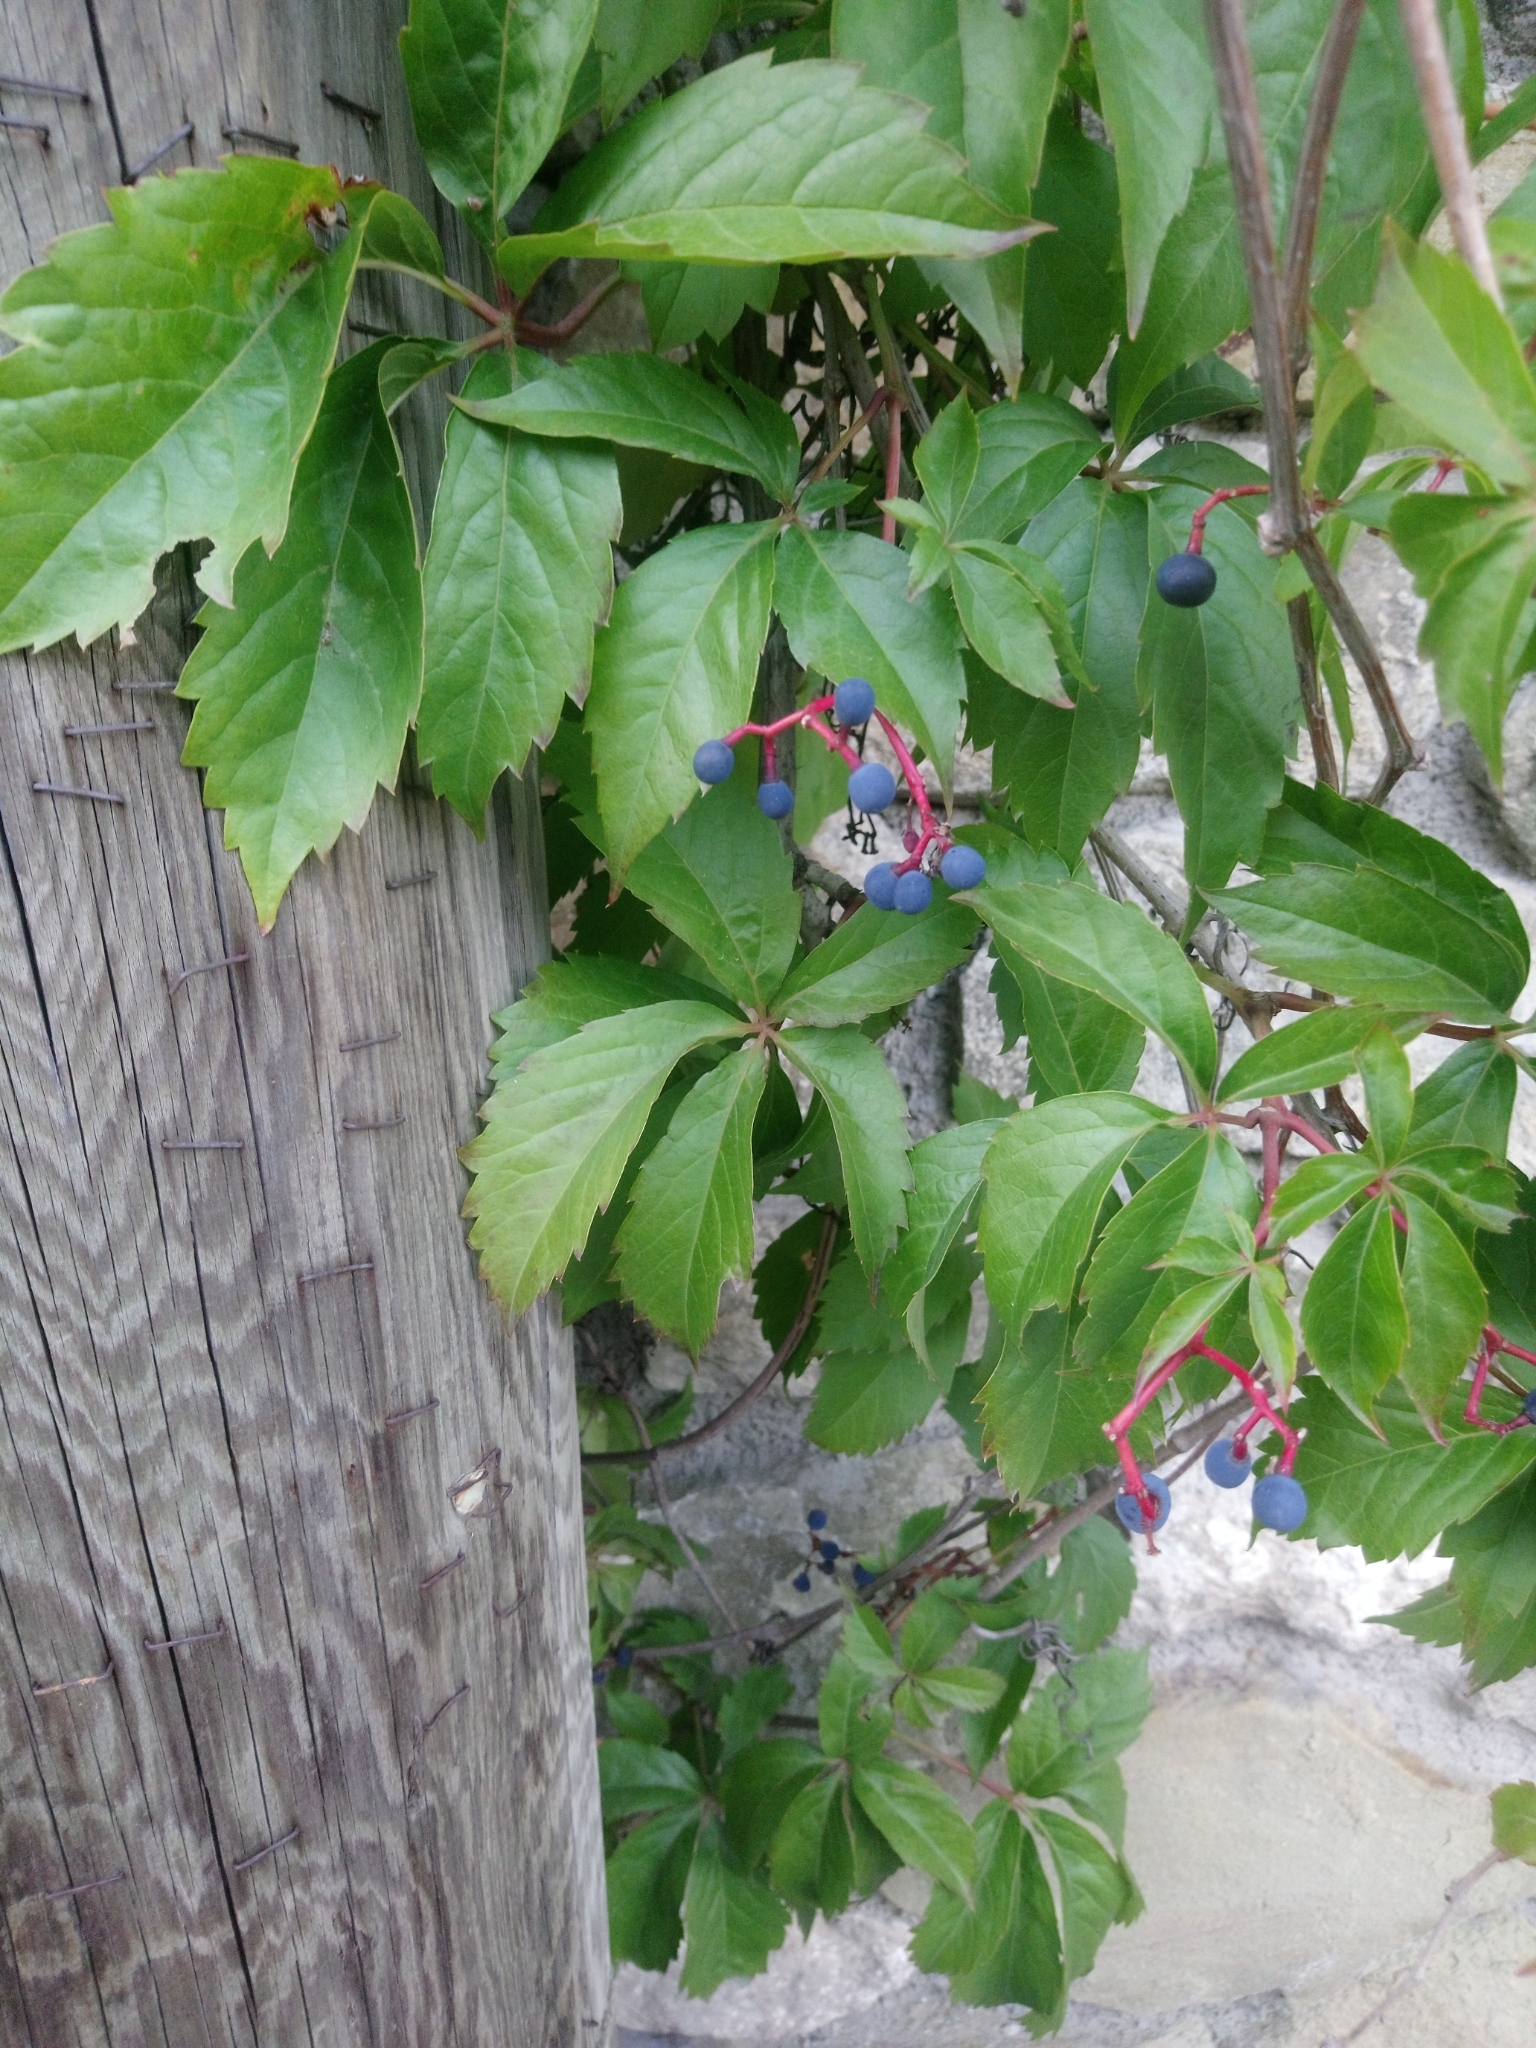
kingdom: Plantae
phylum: Tracheophyta
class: Magnoliopsida
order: Vitales
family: Vitaceae
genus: Parthenocissus
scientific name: Parthenocissus inserta
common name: False virginia-creeper
